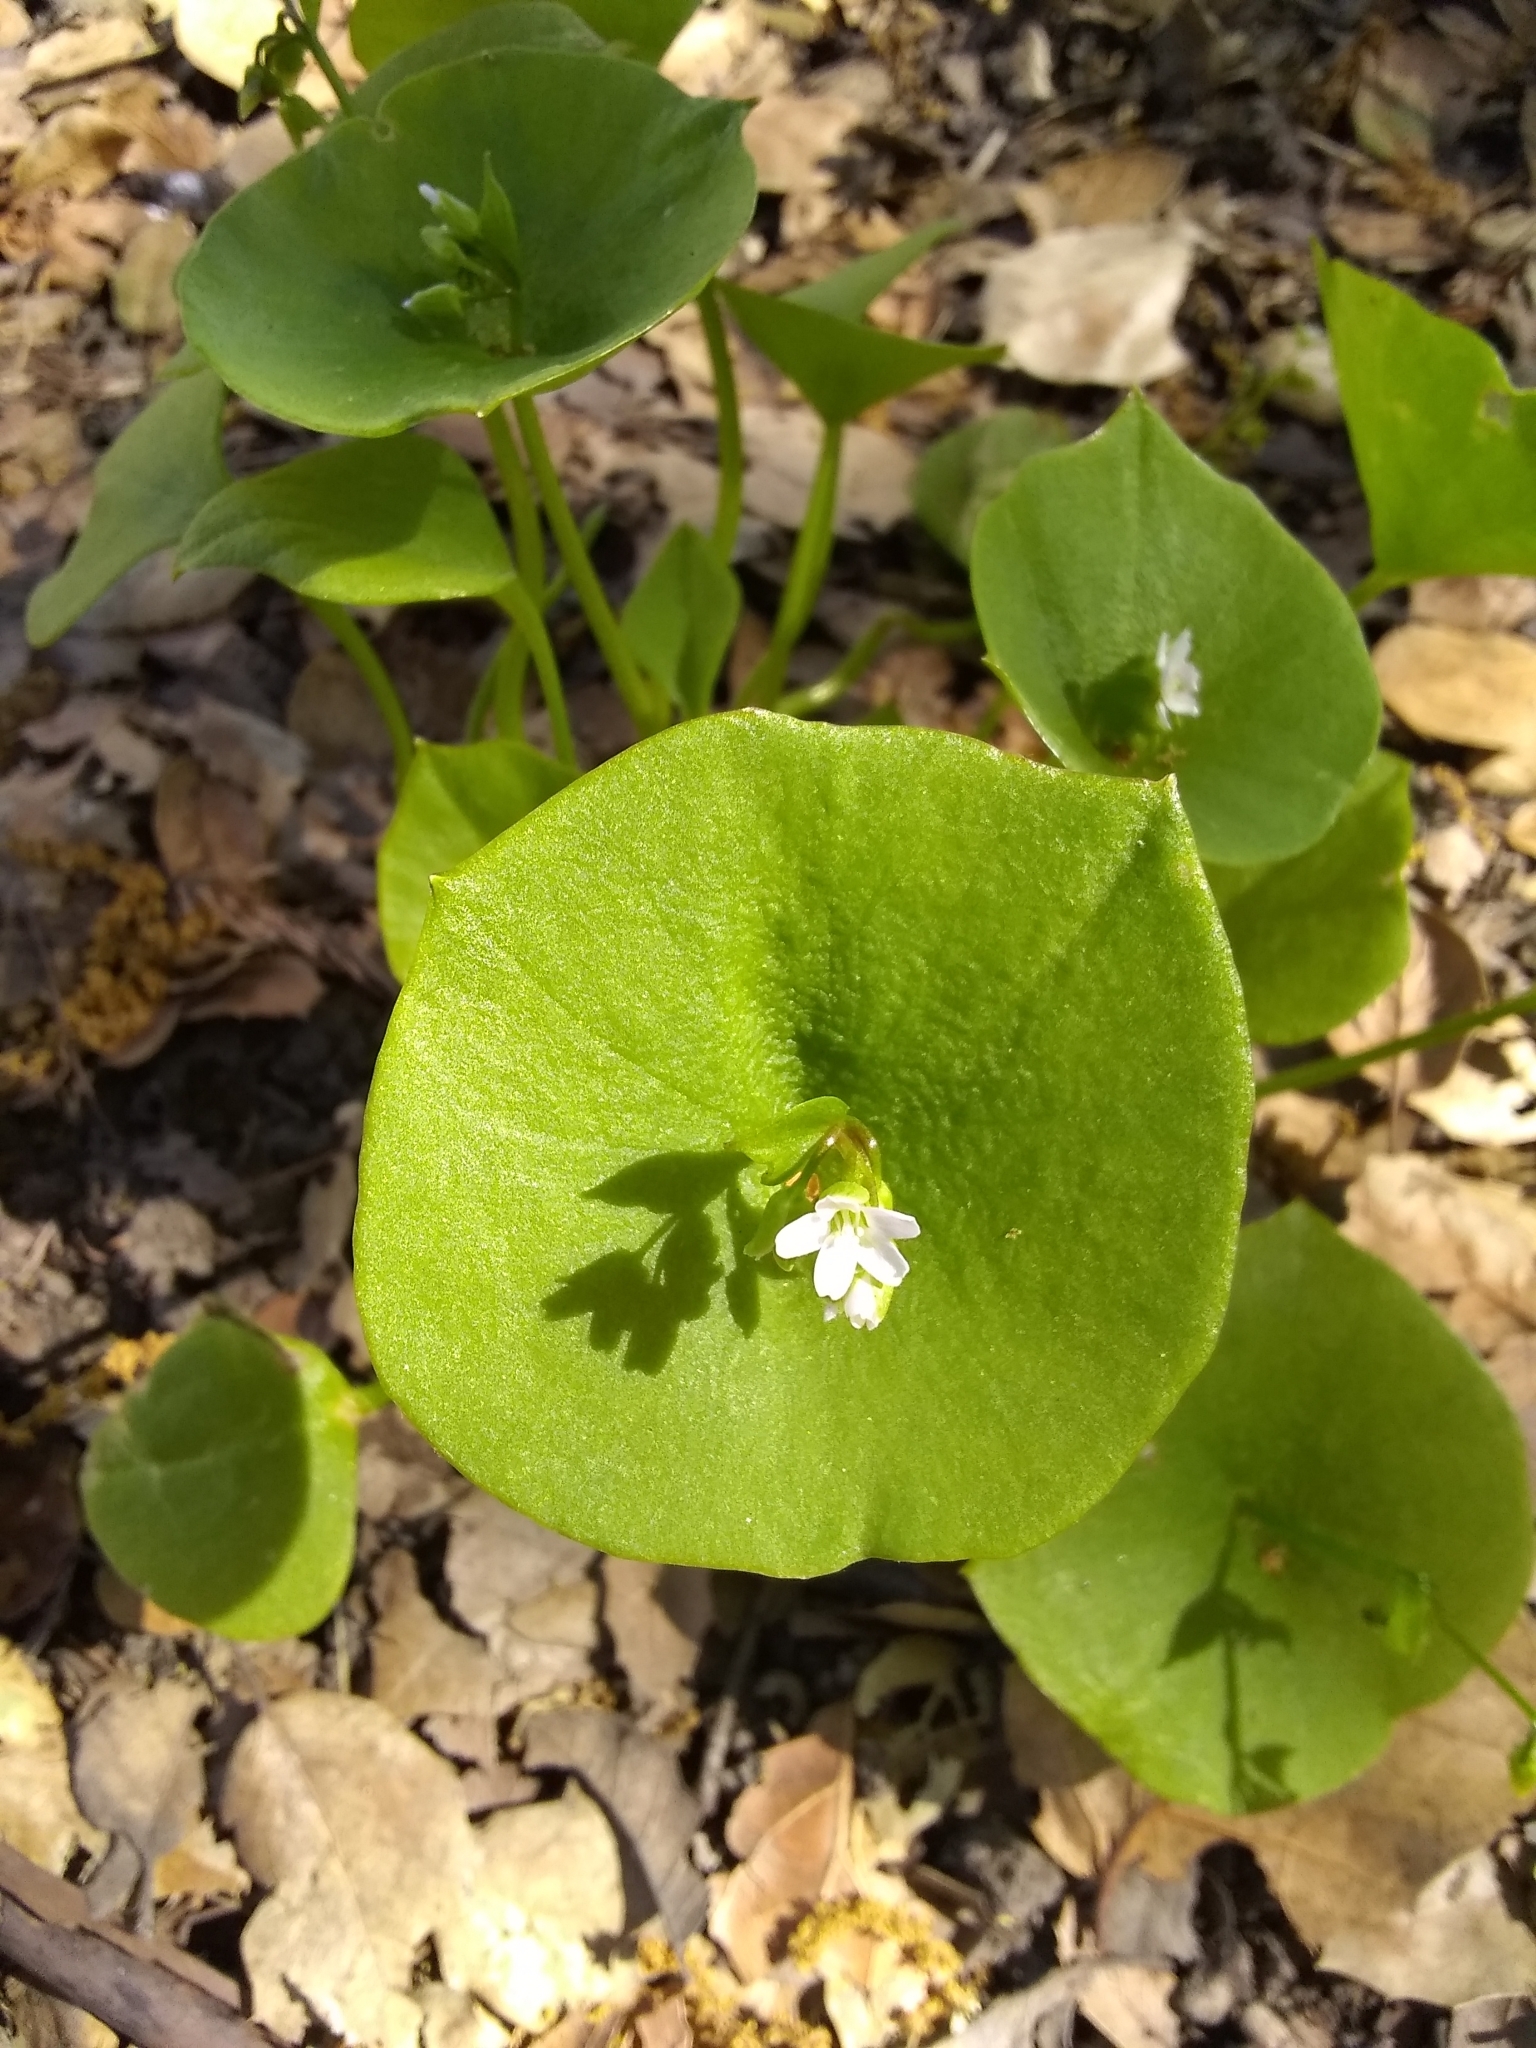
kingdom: Plantae
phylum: Tracheophyta
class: Magnoliopsida
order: Caryophyllales
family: Montiaceae
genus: Claytonia
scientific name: Claytonia perfoliata
